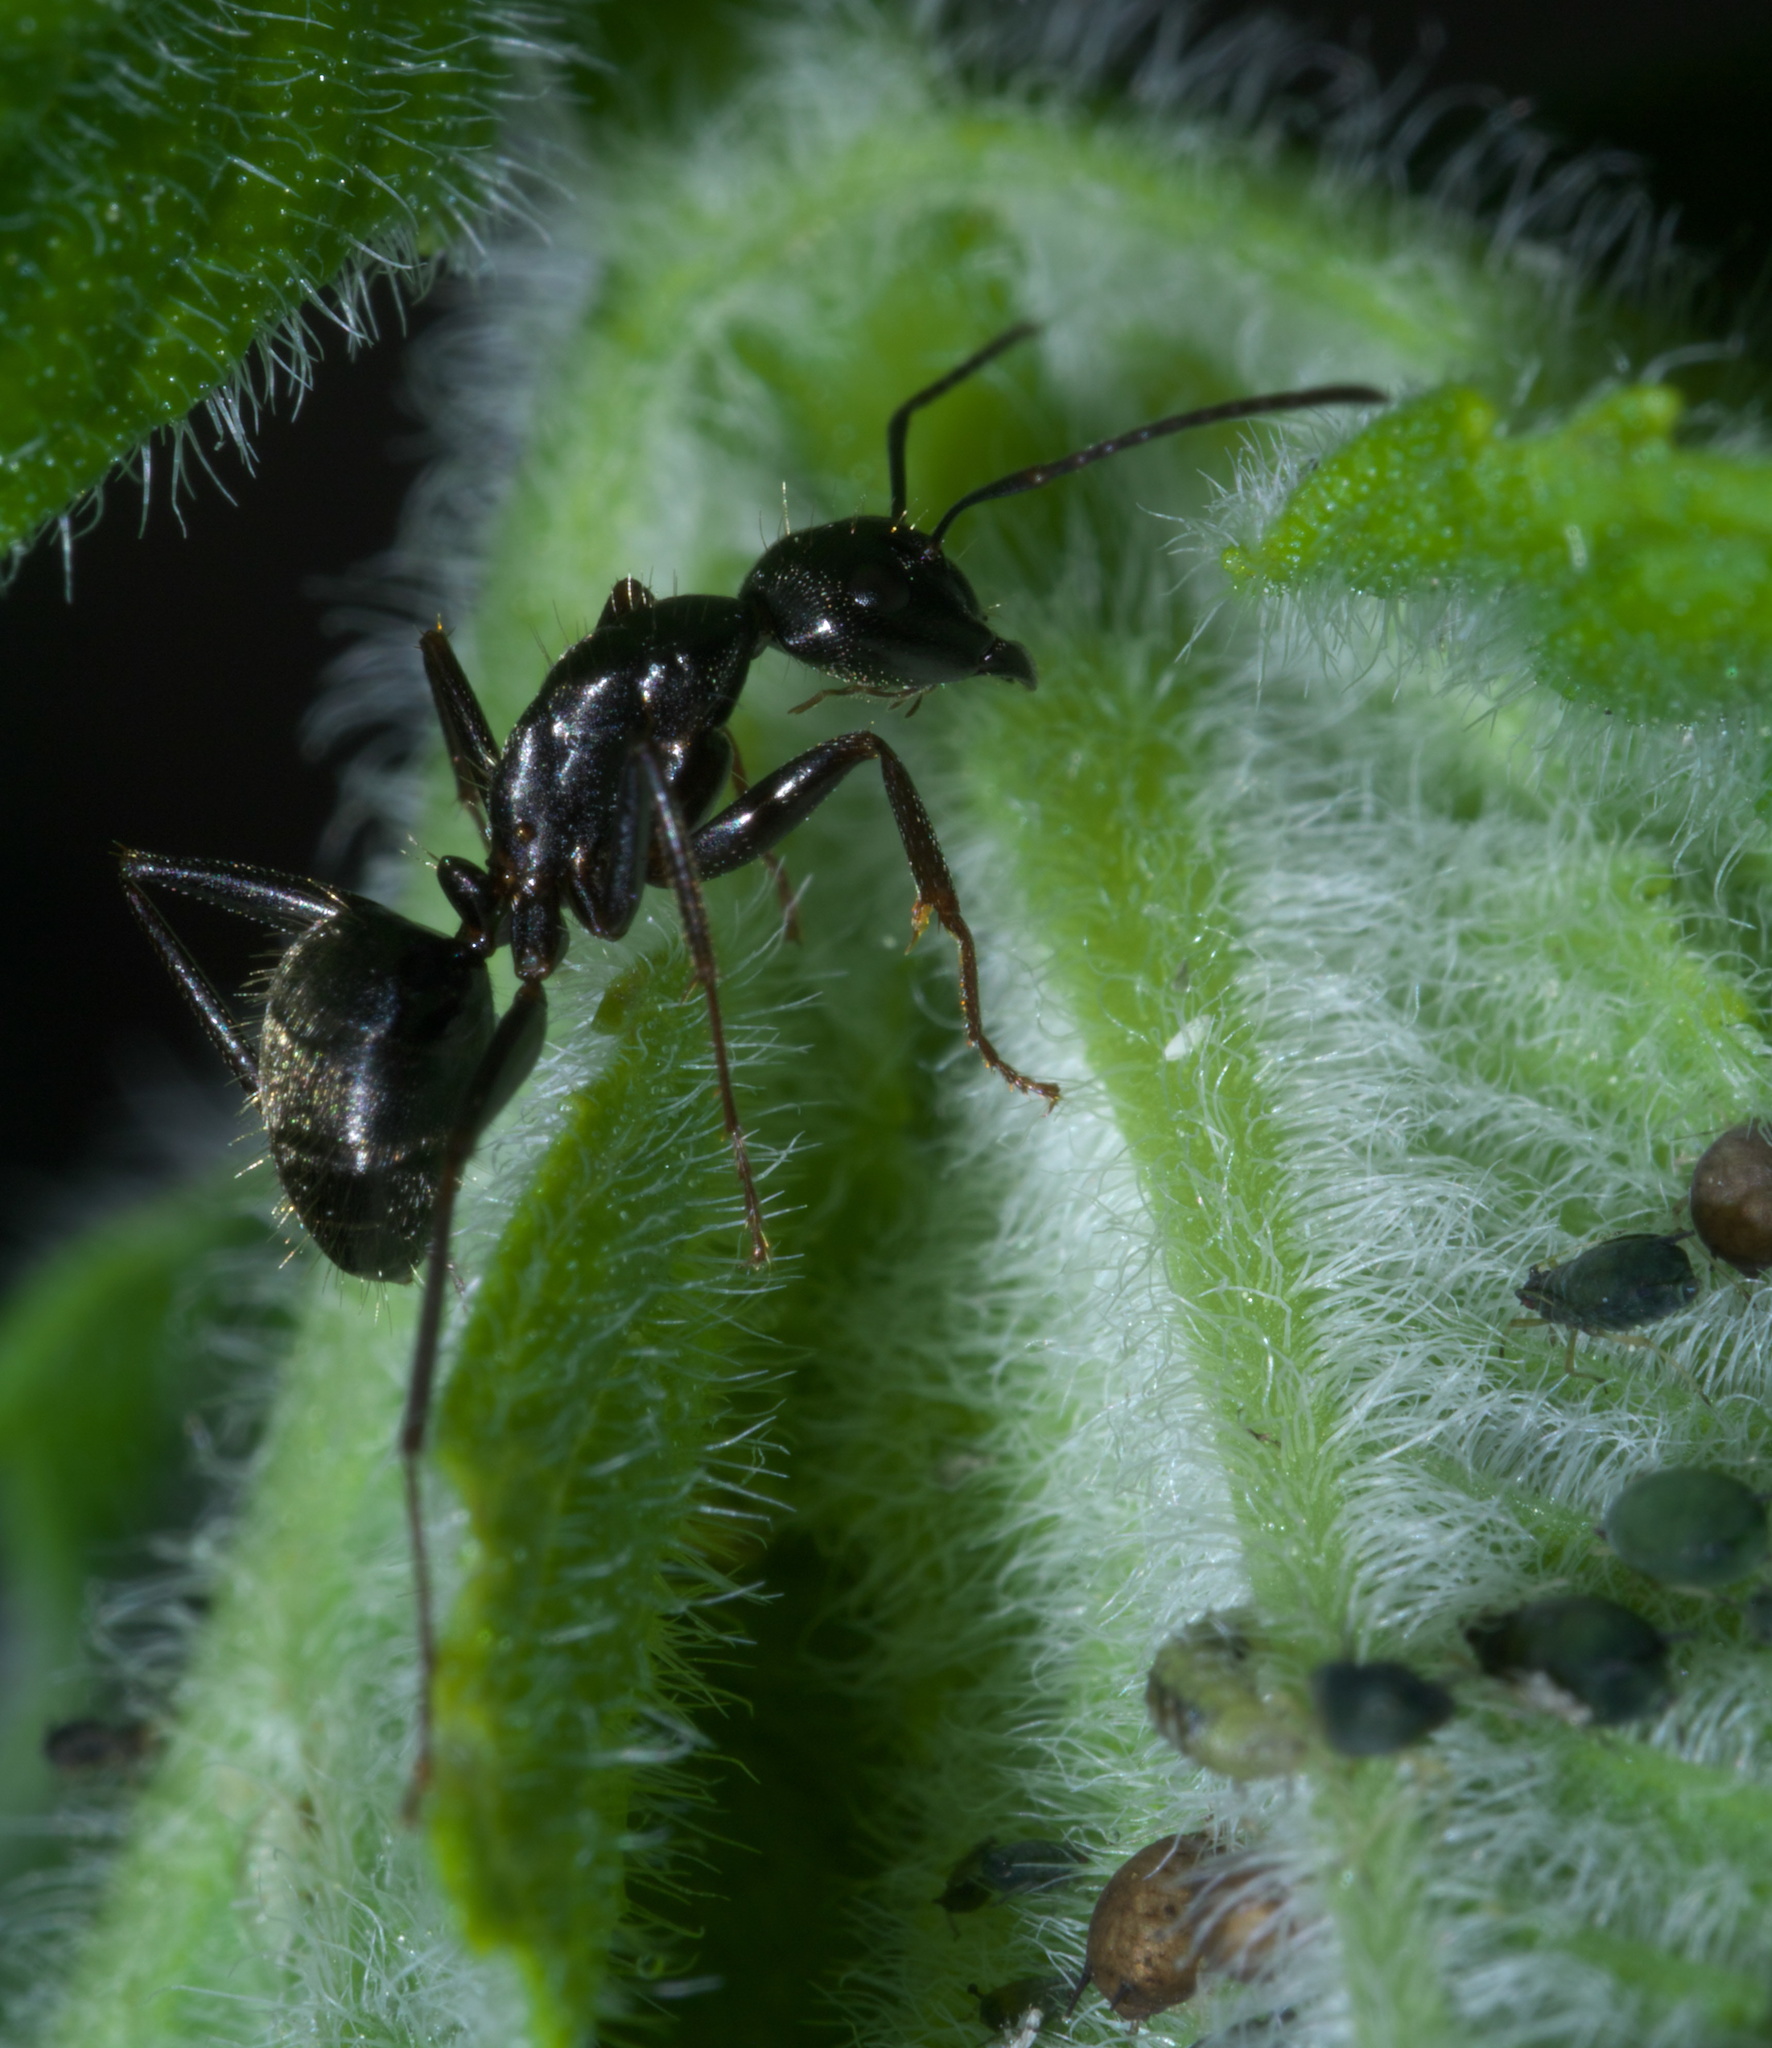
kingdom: Animalia
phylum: Arthropoda
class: Insecta
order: Hymenoptera
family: Formicidae
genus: Camponotus
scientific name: Camponotus pennsylvanicus
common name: Black carpenter ant
